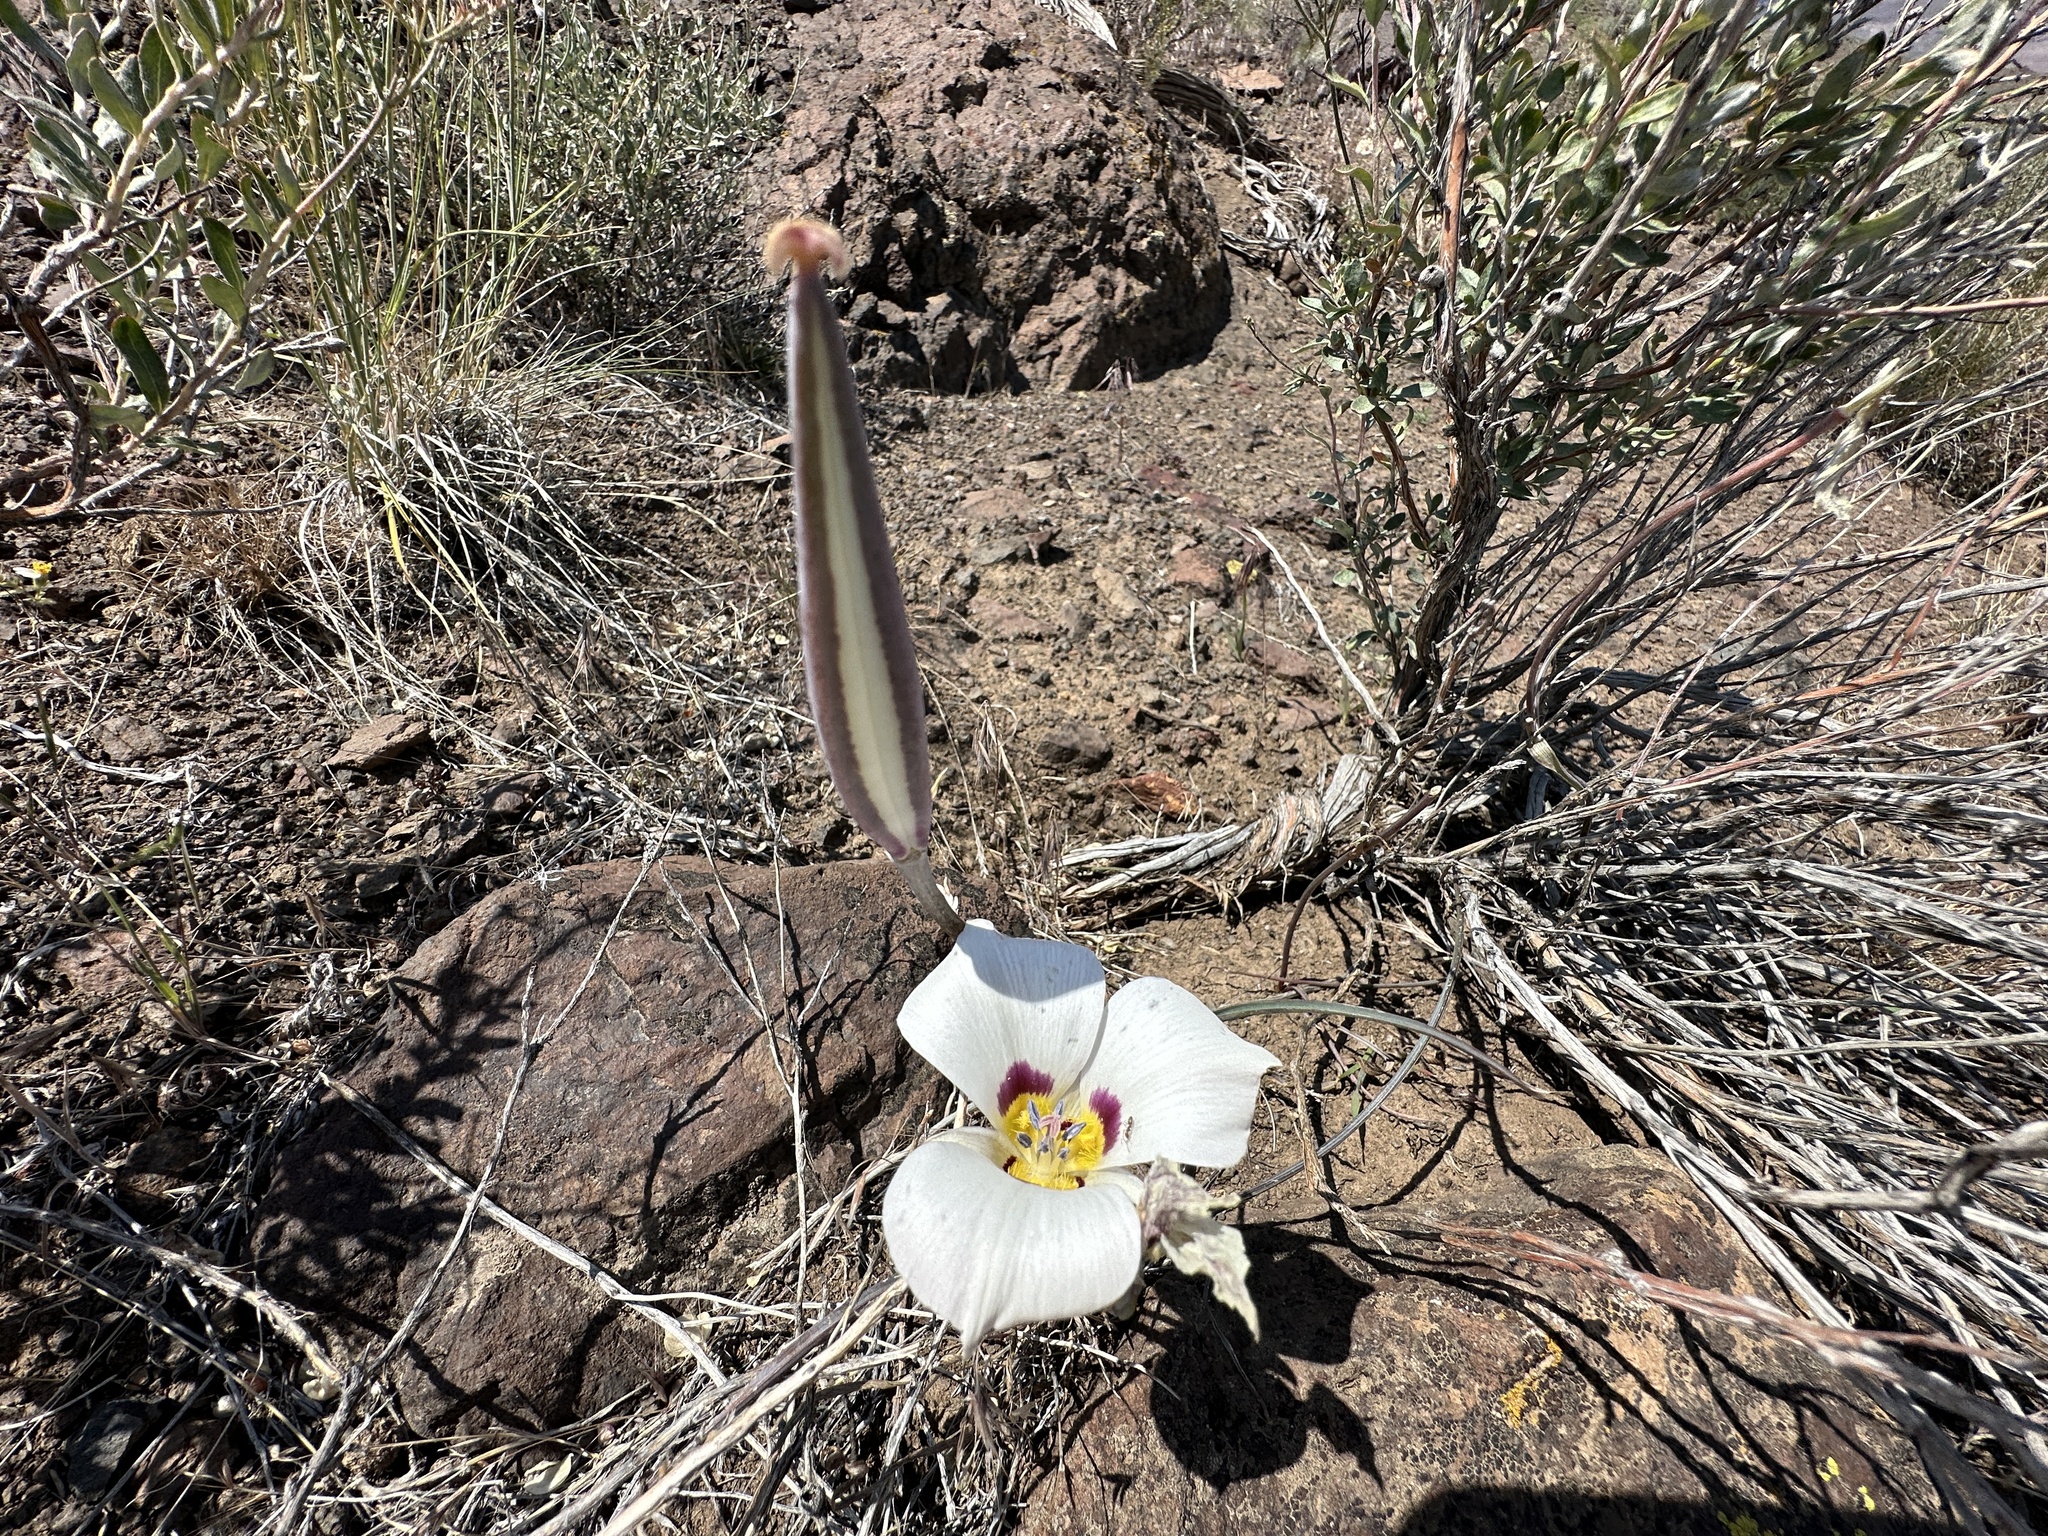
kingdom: Plantae
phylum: Tracheophyta
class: Liliopsida
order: Liliales
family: Liliaceae
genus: Calochortus
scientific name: Calochortus bruneaunis
